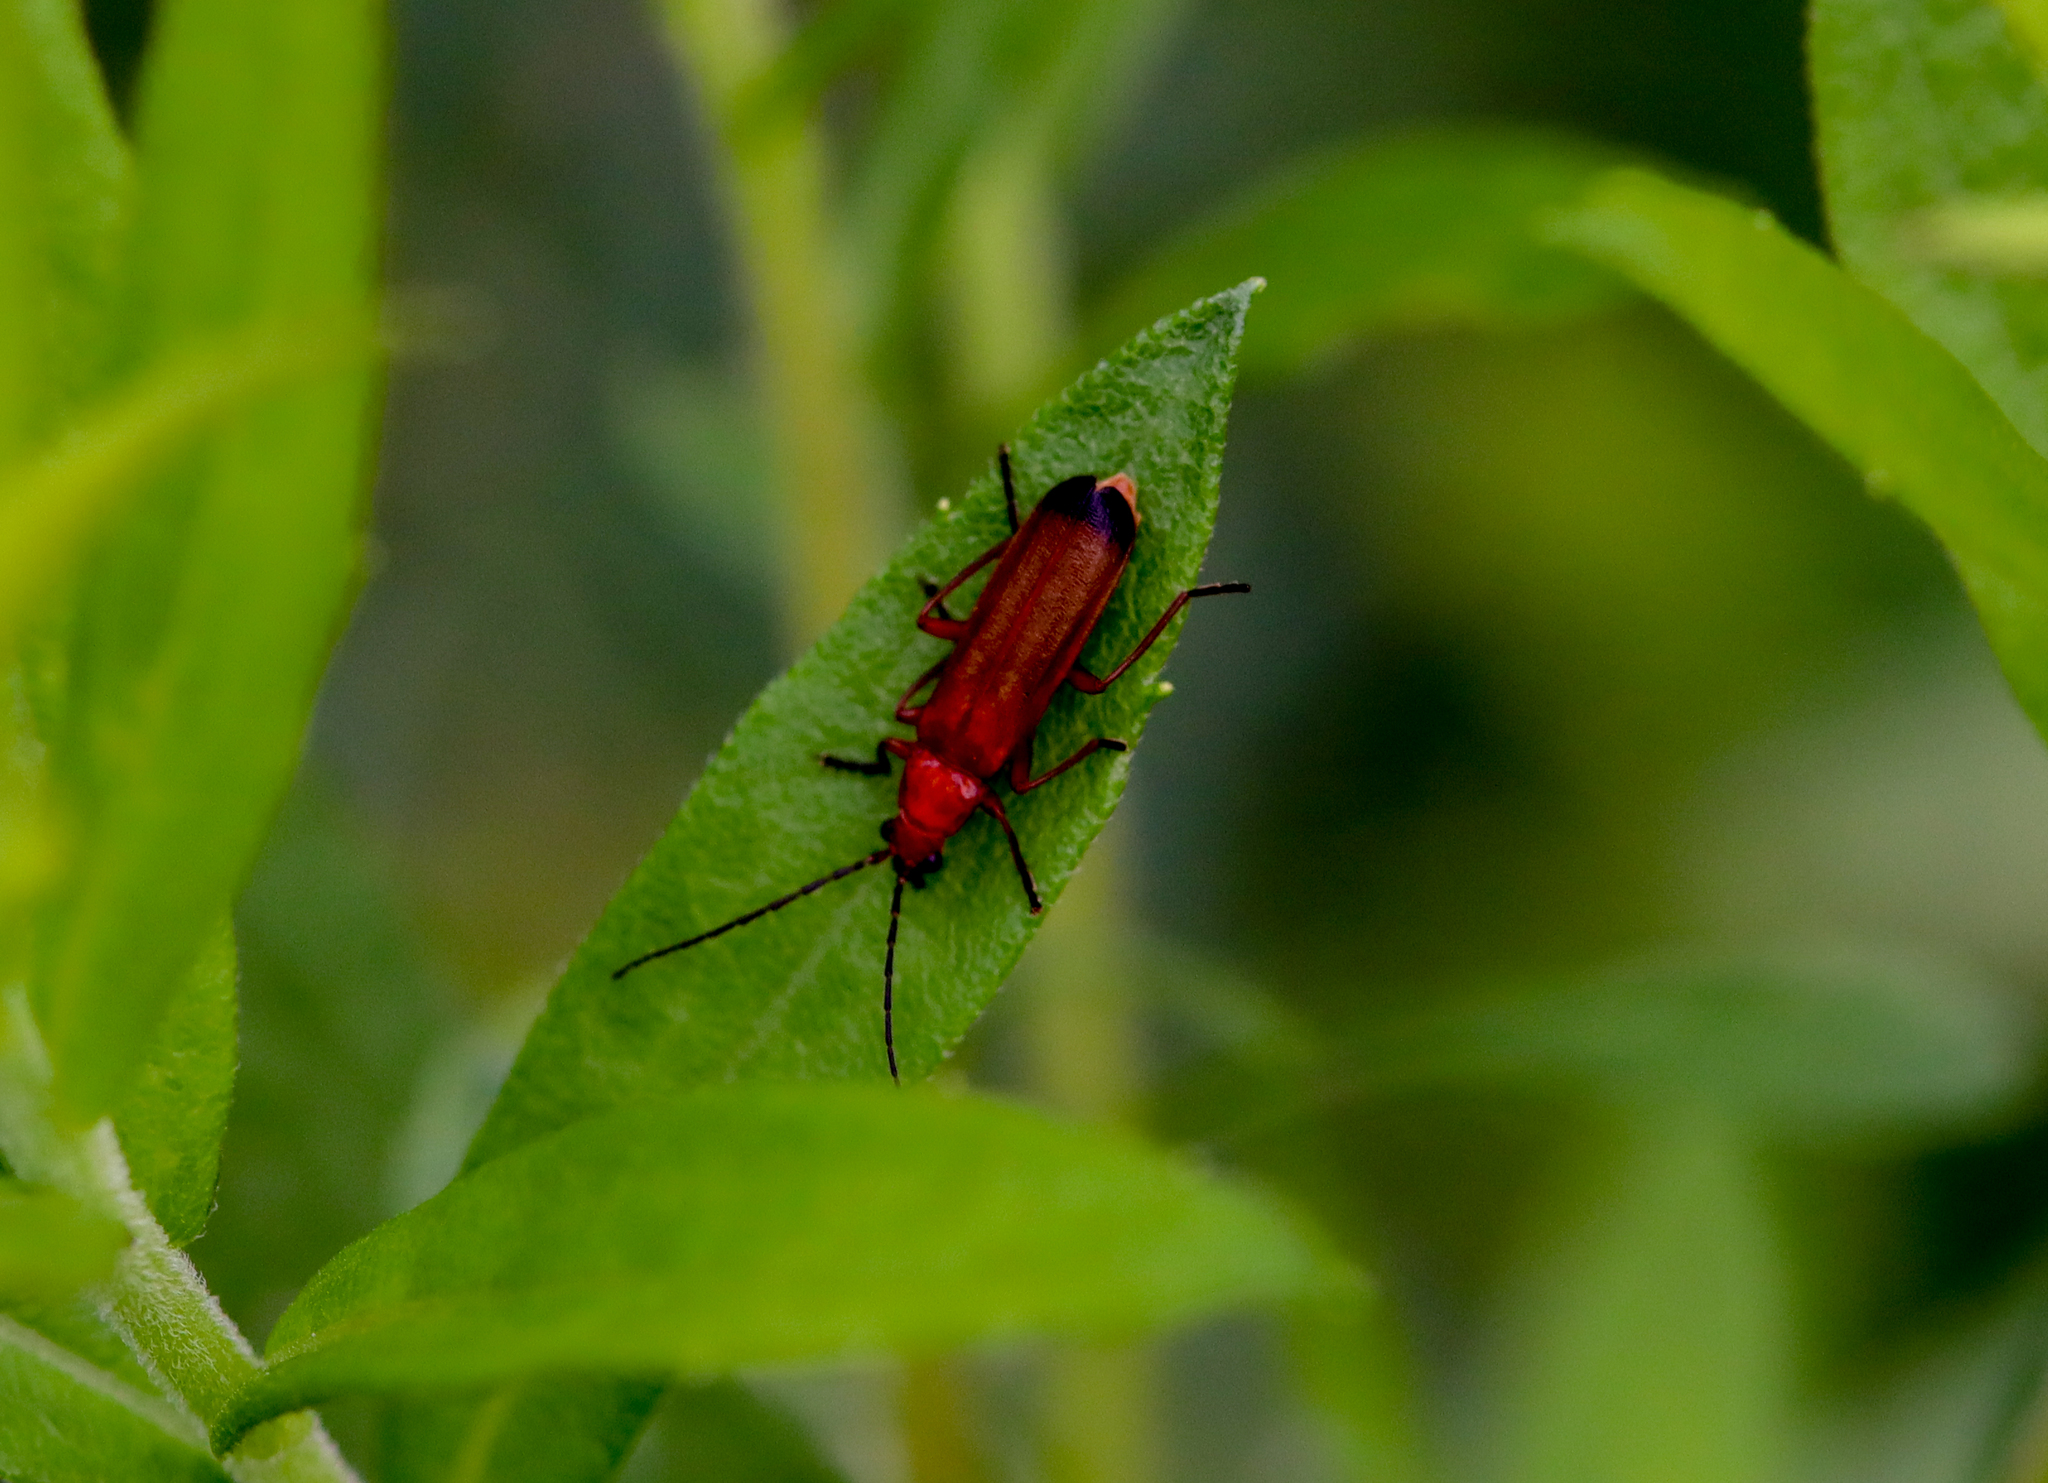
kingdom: Animalia
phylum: Arthropoda
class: Insecta
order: Coleoptera
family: Cantharidae
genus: Rhagonycha
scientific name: Rhagonycha fulva
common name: Common red soldier beetle
